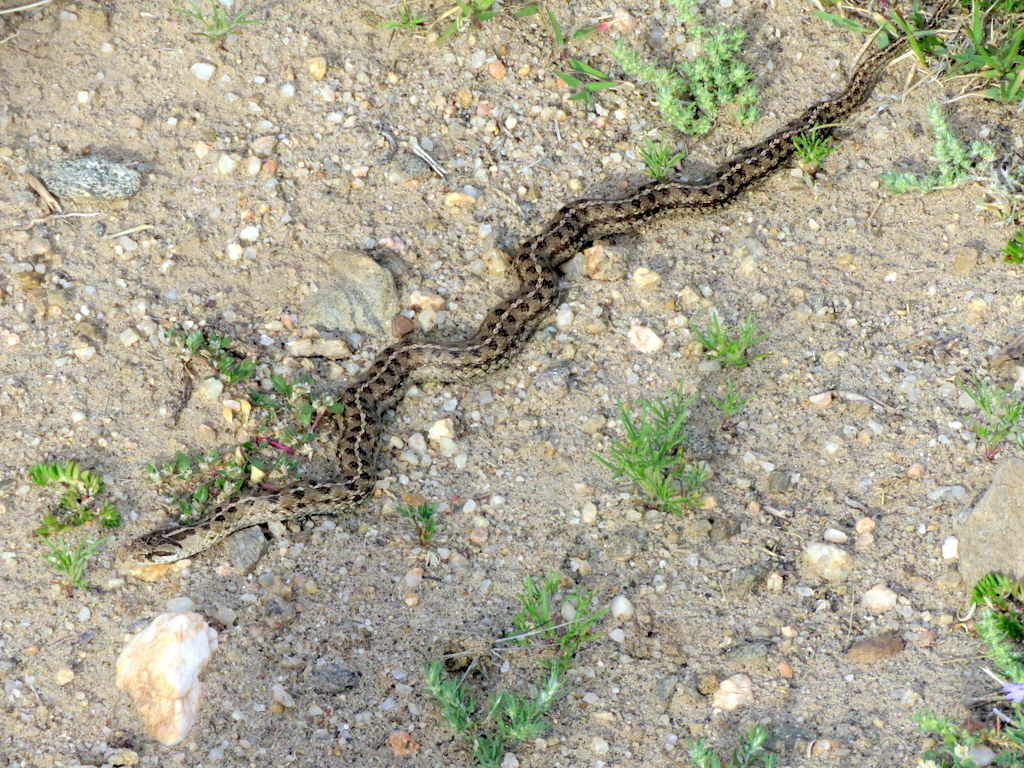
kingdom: Animalia
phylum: Chordata
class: Squamata
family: Colubridae
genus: Tachymenis
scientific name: Tachymenis peruviana
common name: Peru slender snake
